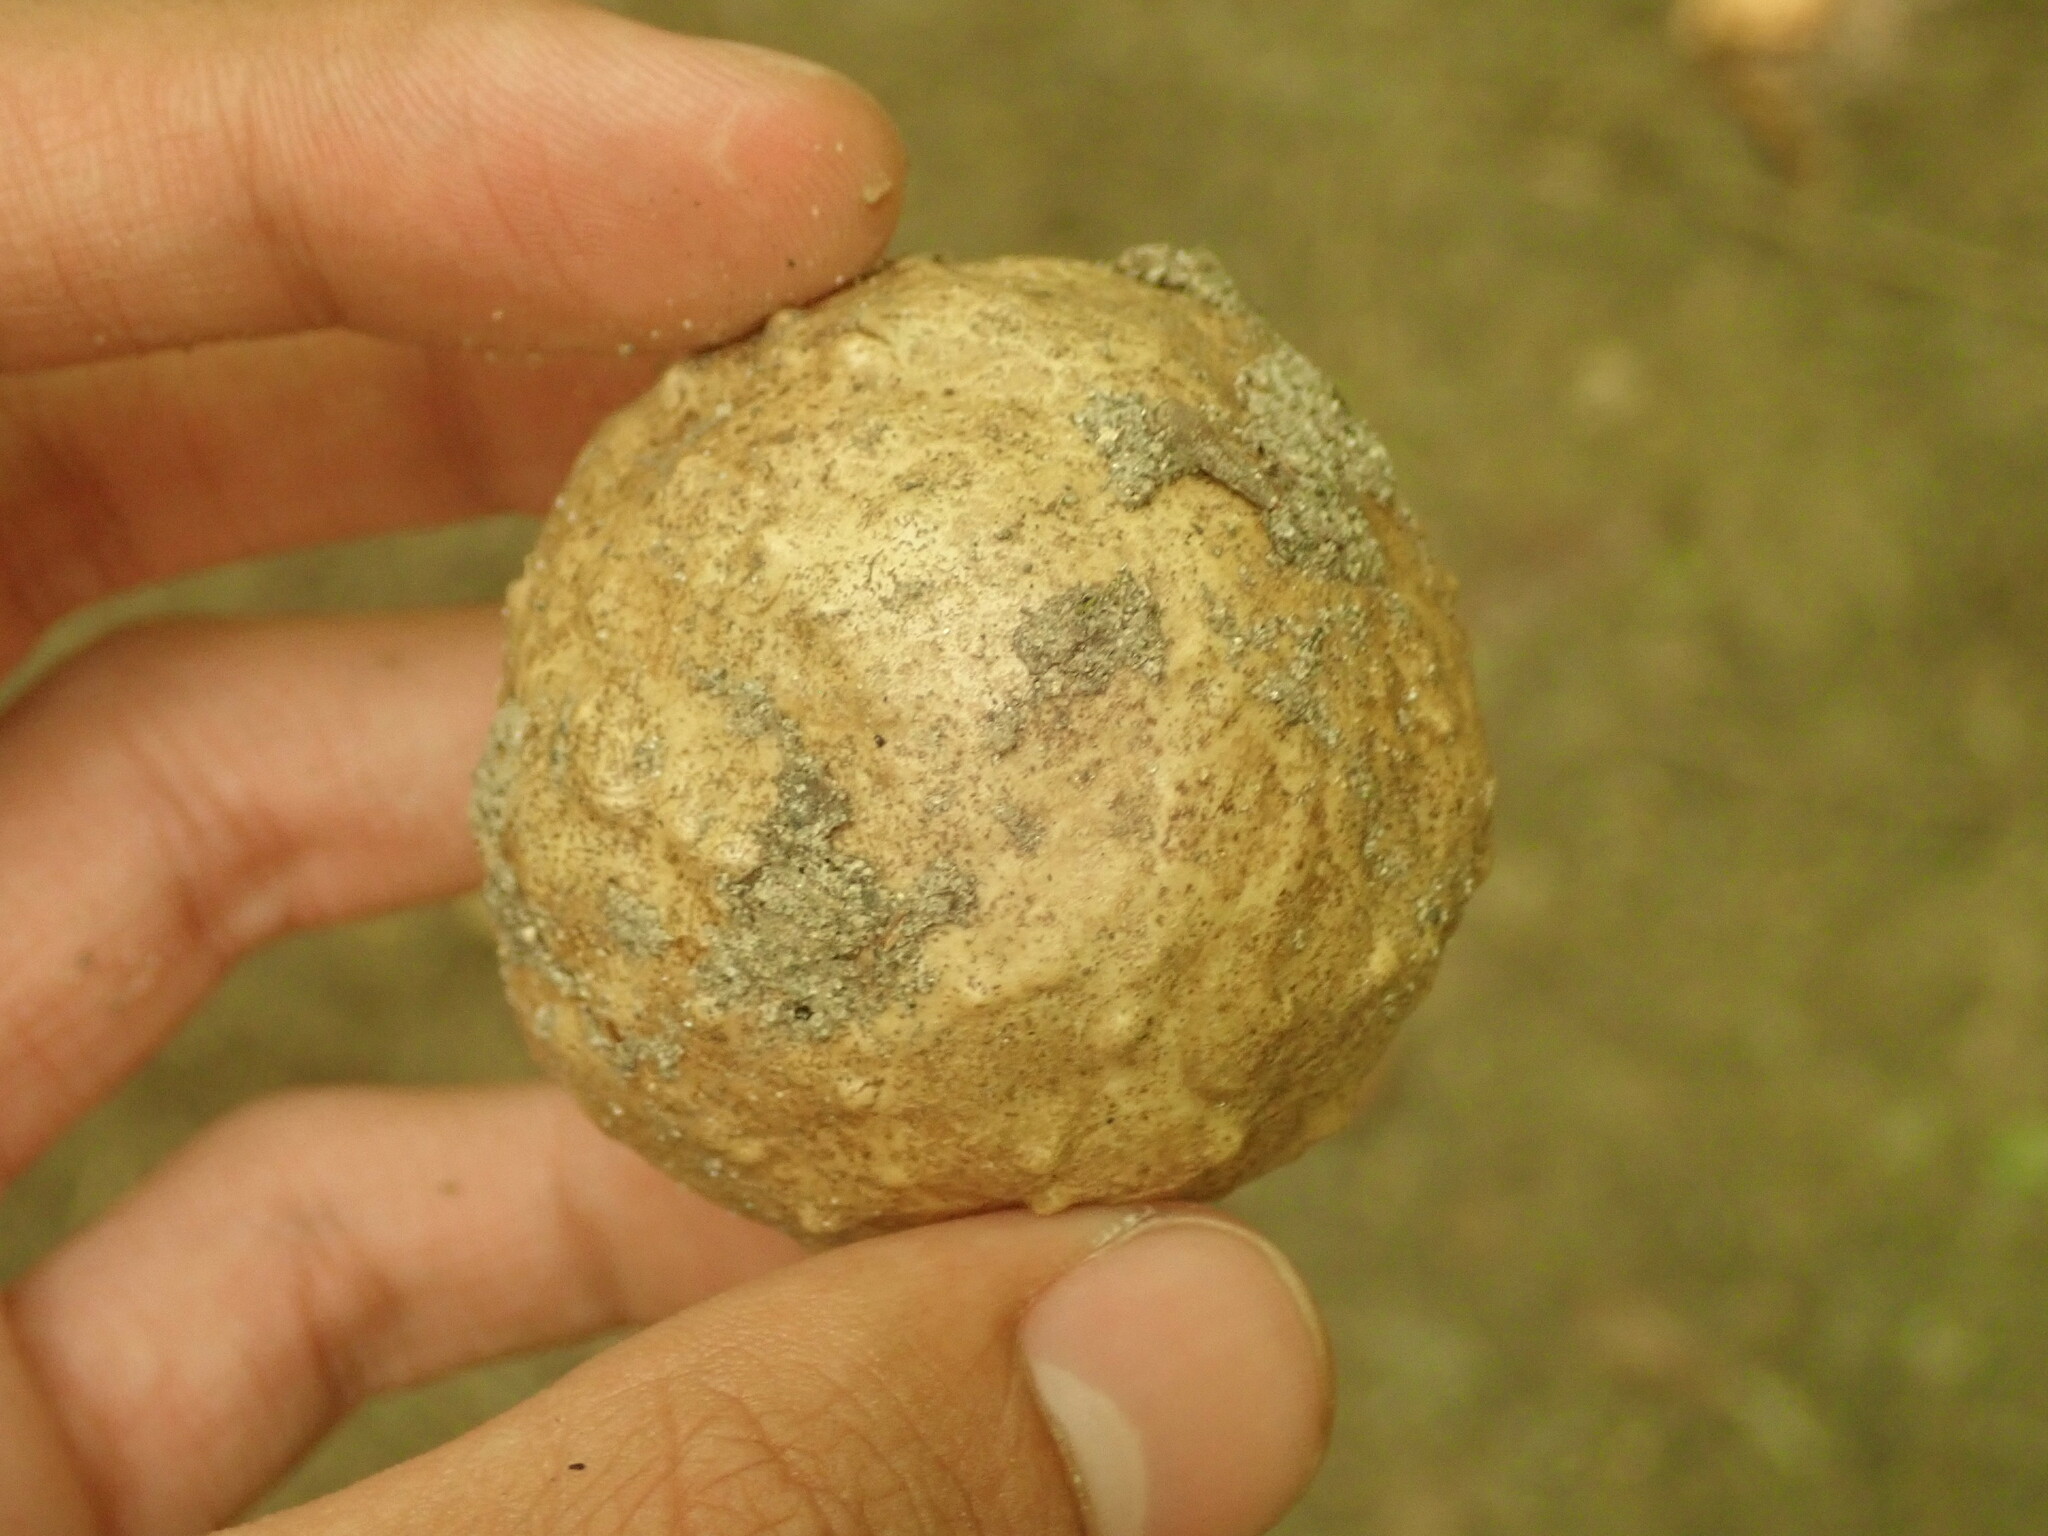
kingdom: Animalia
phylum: Arthropoda
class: Insecta
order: Hymenoptera
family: Cynipidae
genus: Amphibolips
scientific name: Amphibolips
